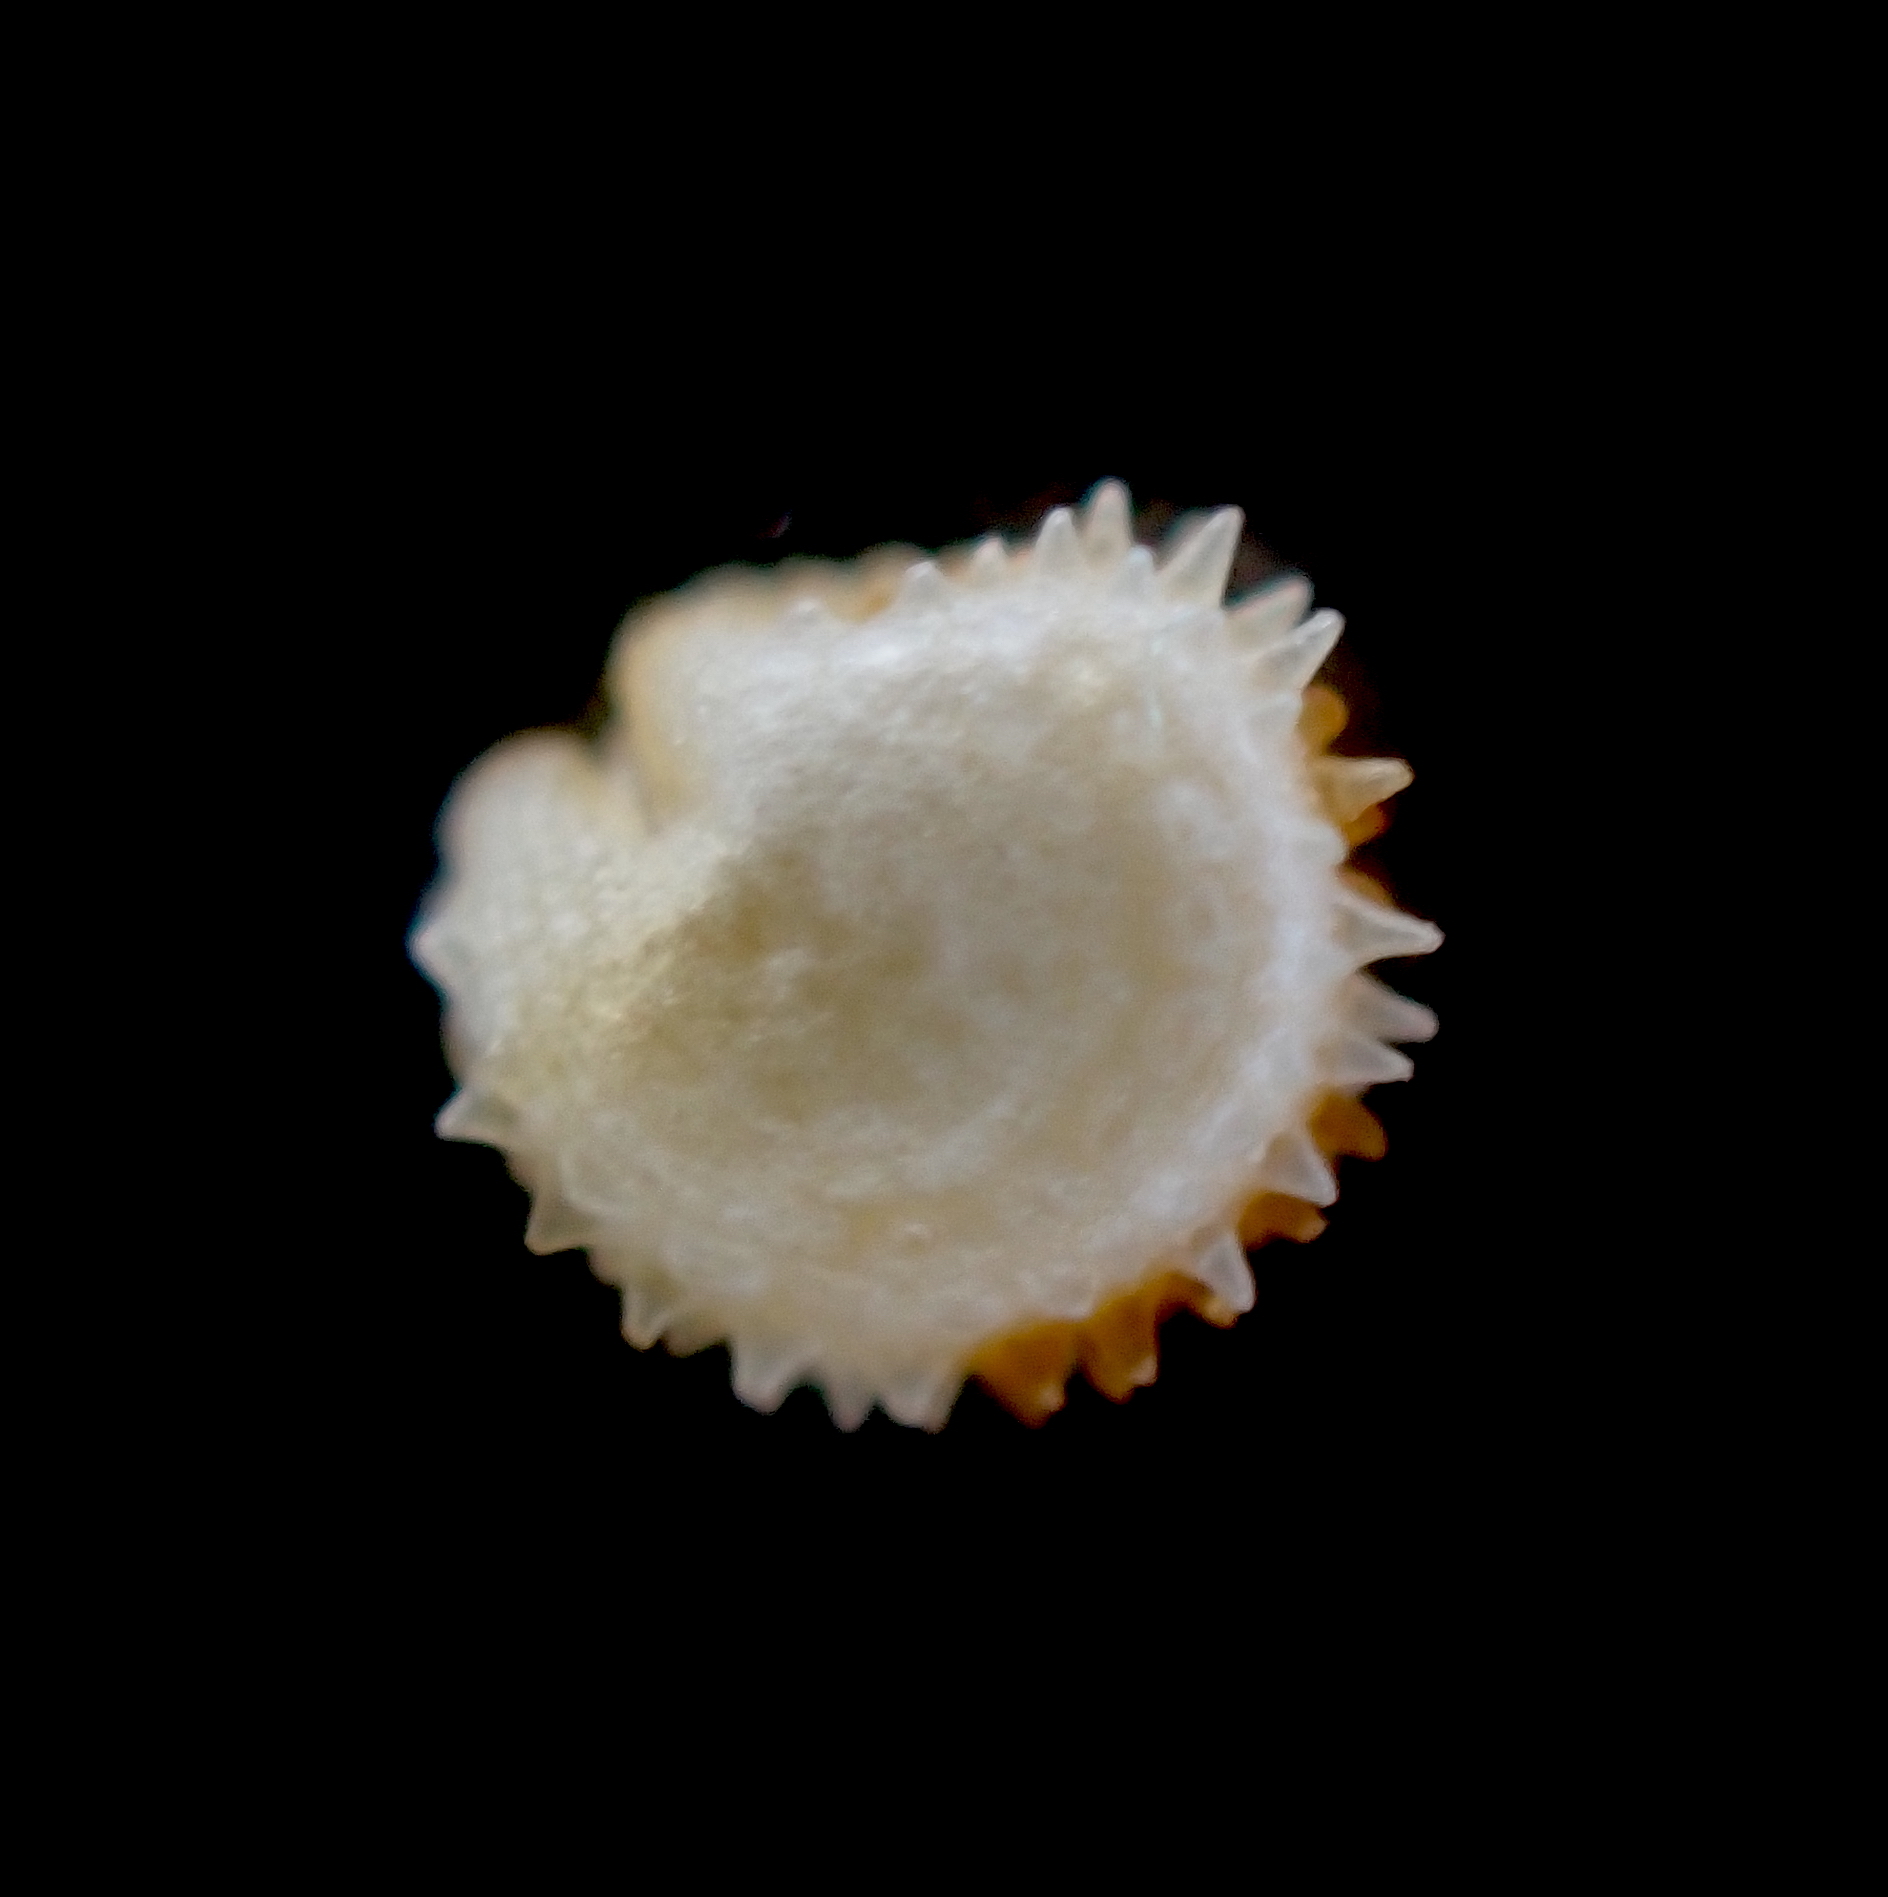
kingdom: Plantae
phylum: Tracheophyta
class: Magnoliopsida
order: Caryophyllales
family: Caryophyllaceae
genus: Stellaria
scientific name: Stellaria ruderalis
